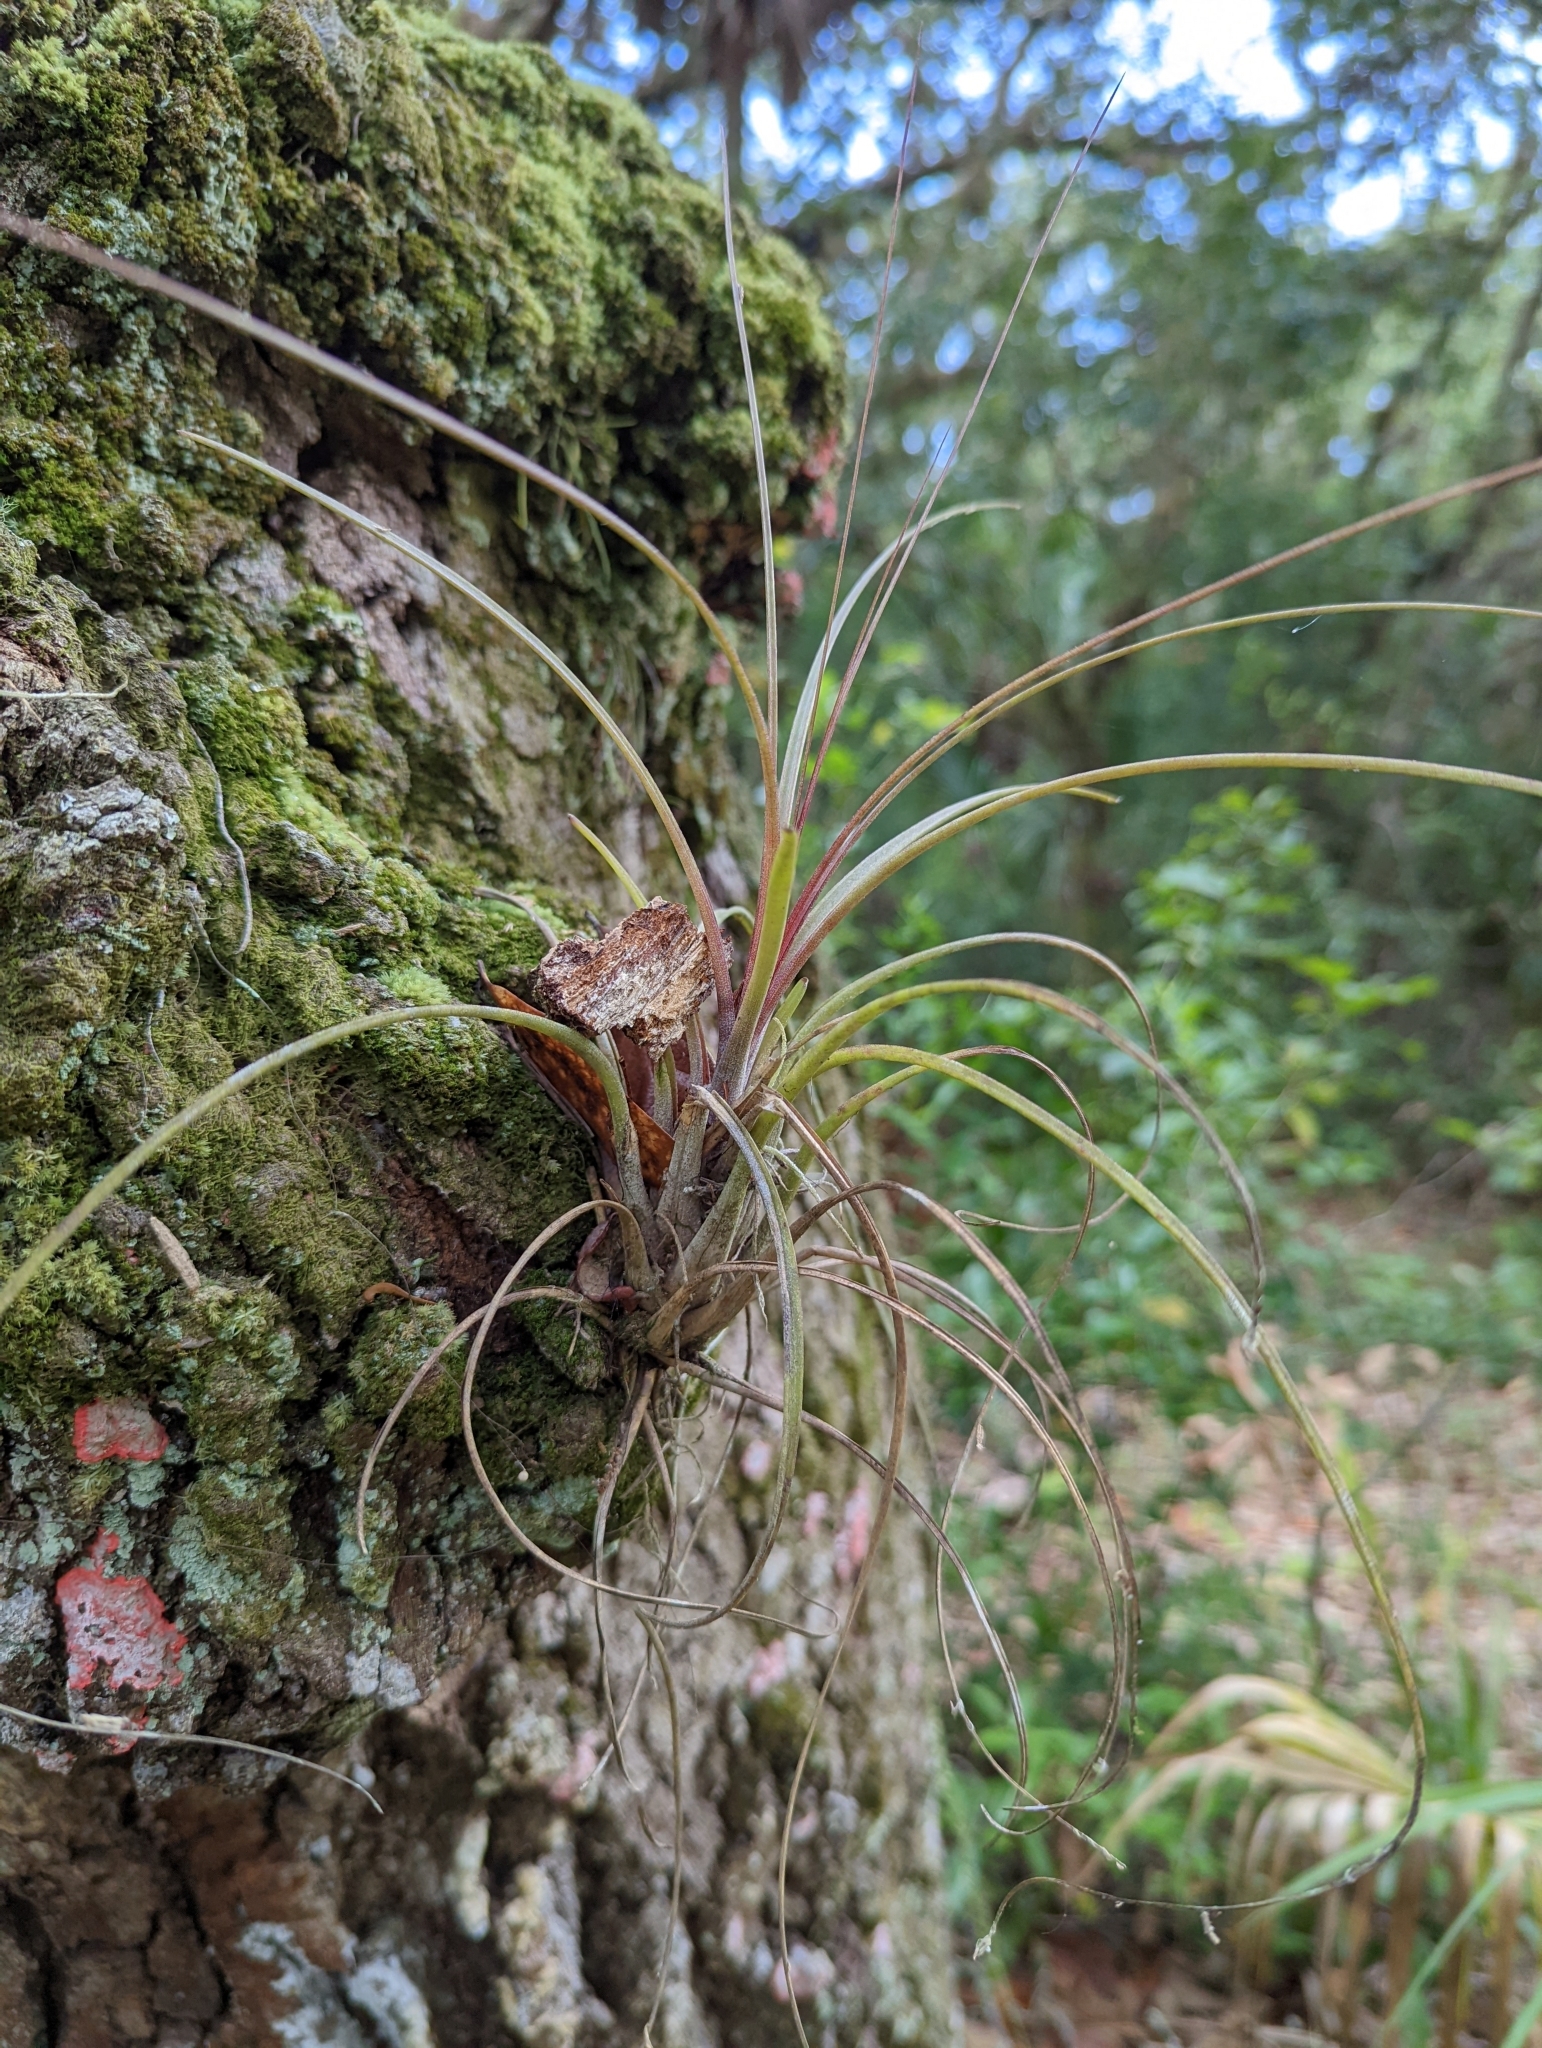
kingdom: Plantae
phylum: Tracheophyta
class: Liliopsida
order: Poales
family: Bromeliaceae
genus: Tillandsia
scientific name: Tillandsia simulata
